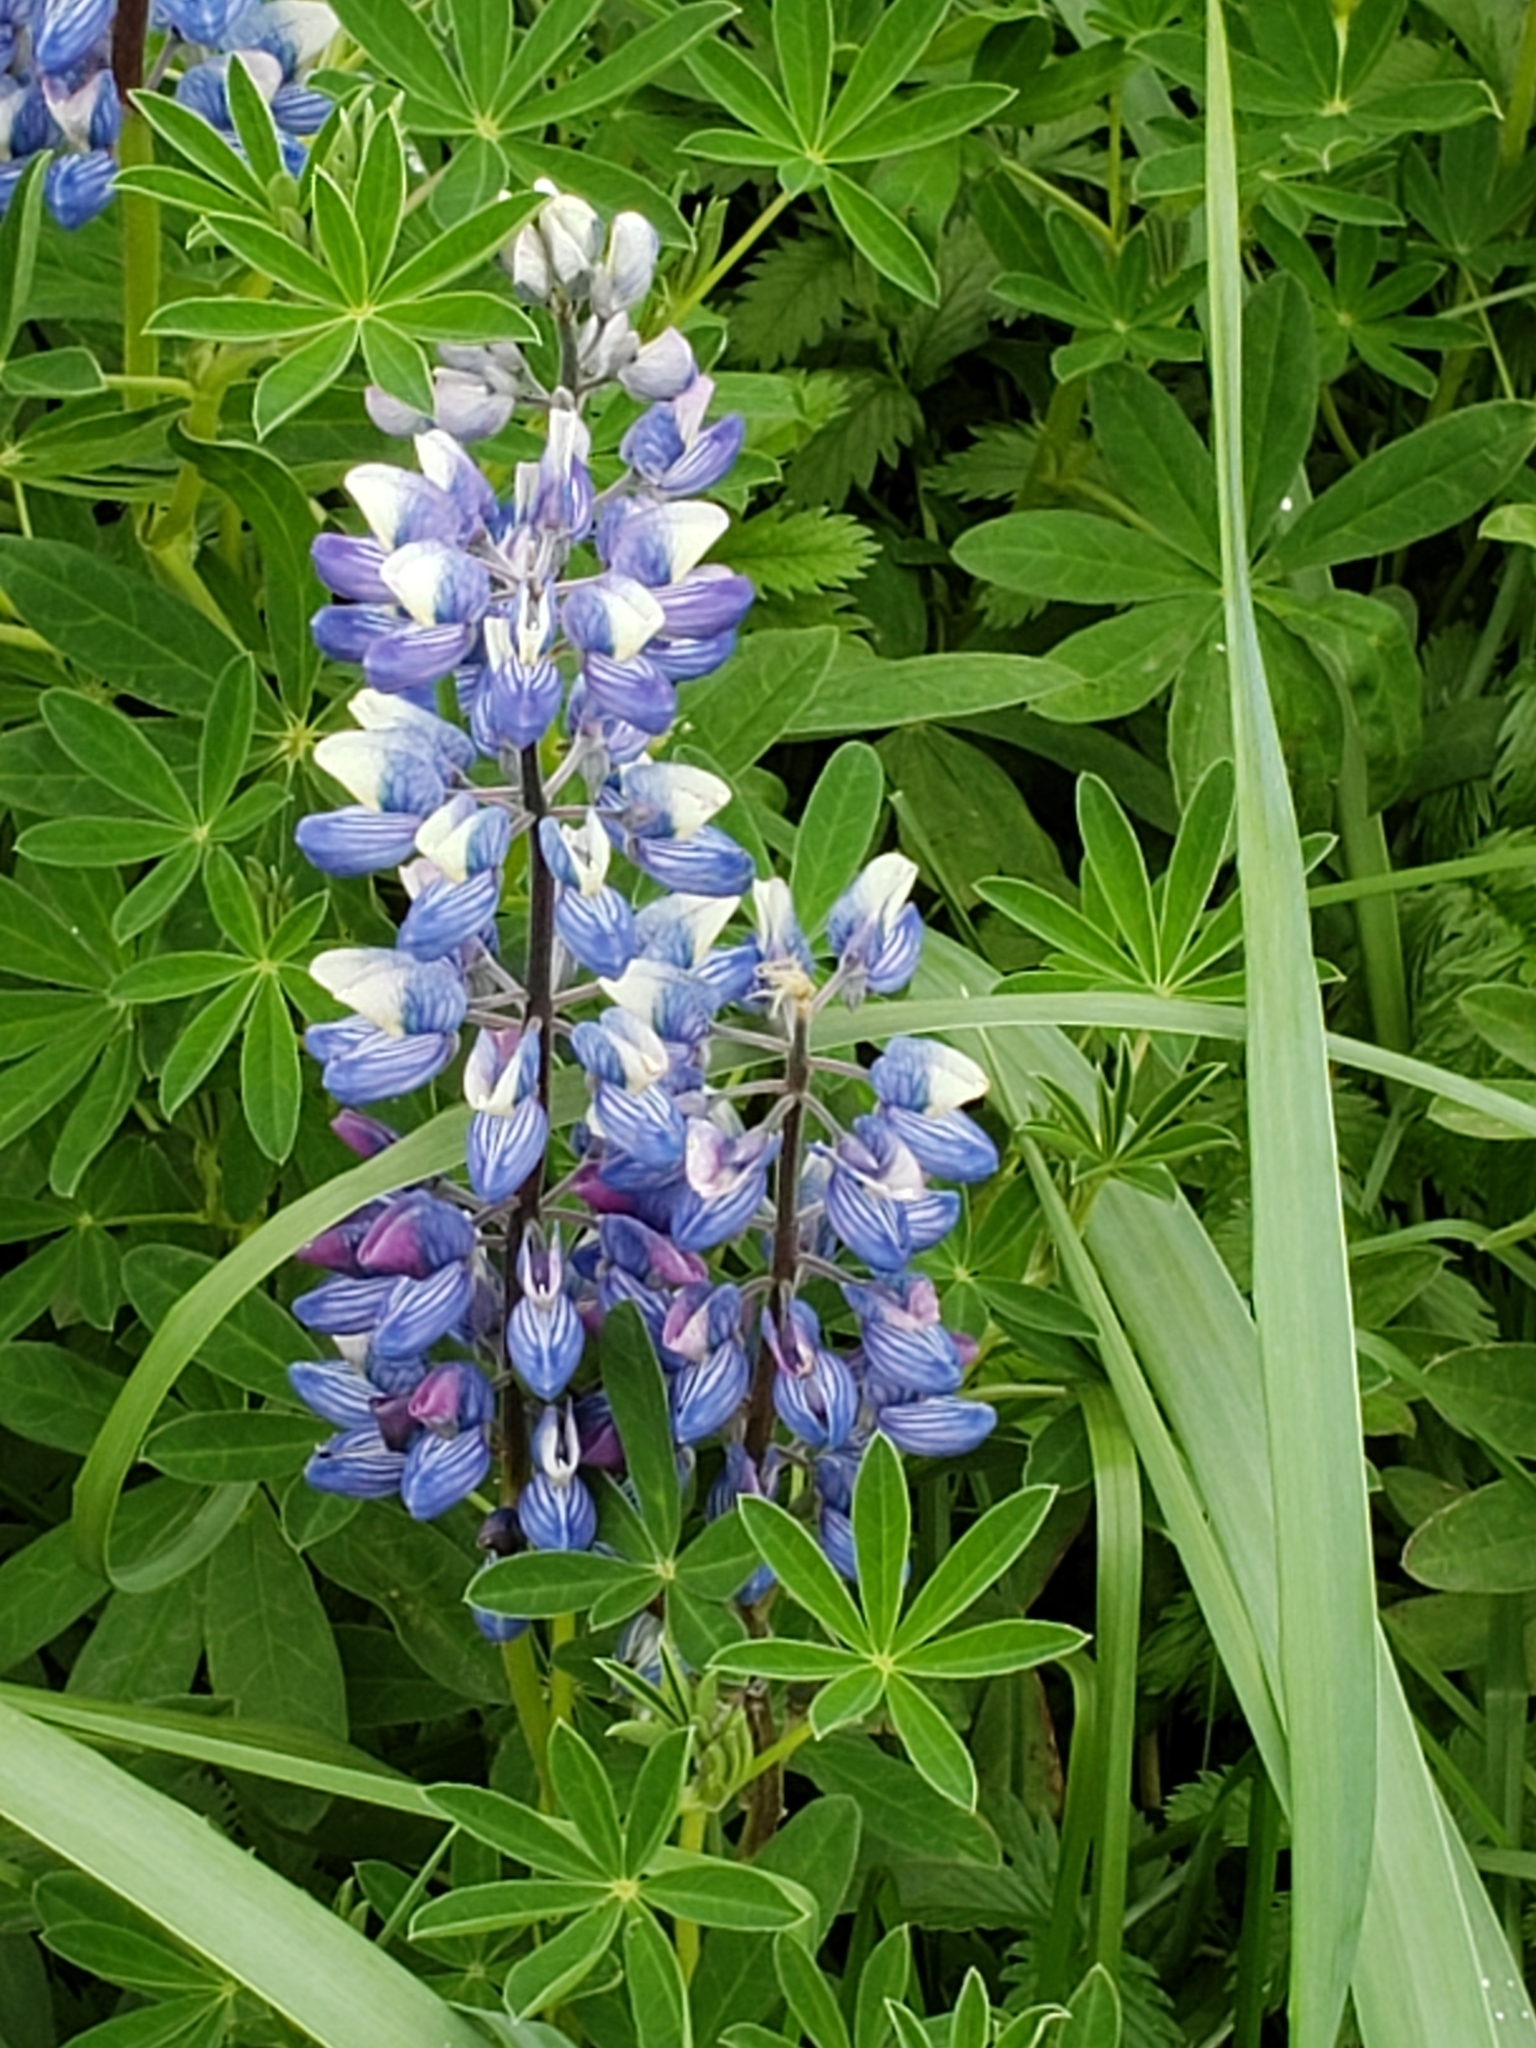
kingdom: Plantae
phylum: Tracheophyta
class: Magnoliopsida
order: Fabales
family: Fabaceae
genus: Lupinus
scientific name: Lupinus nootkatensis
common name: Nootka lupine
